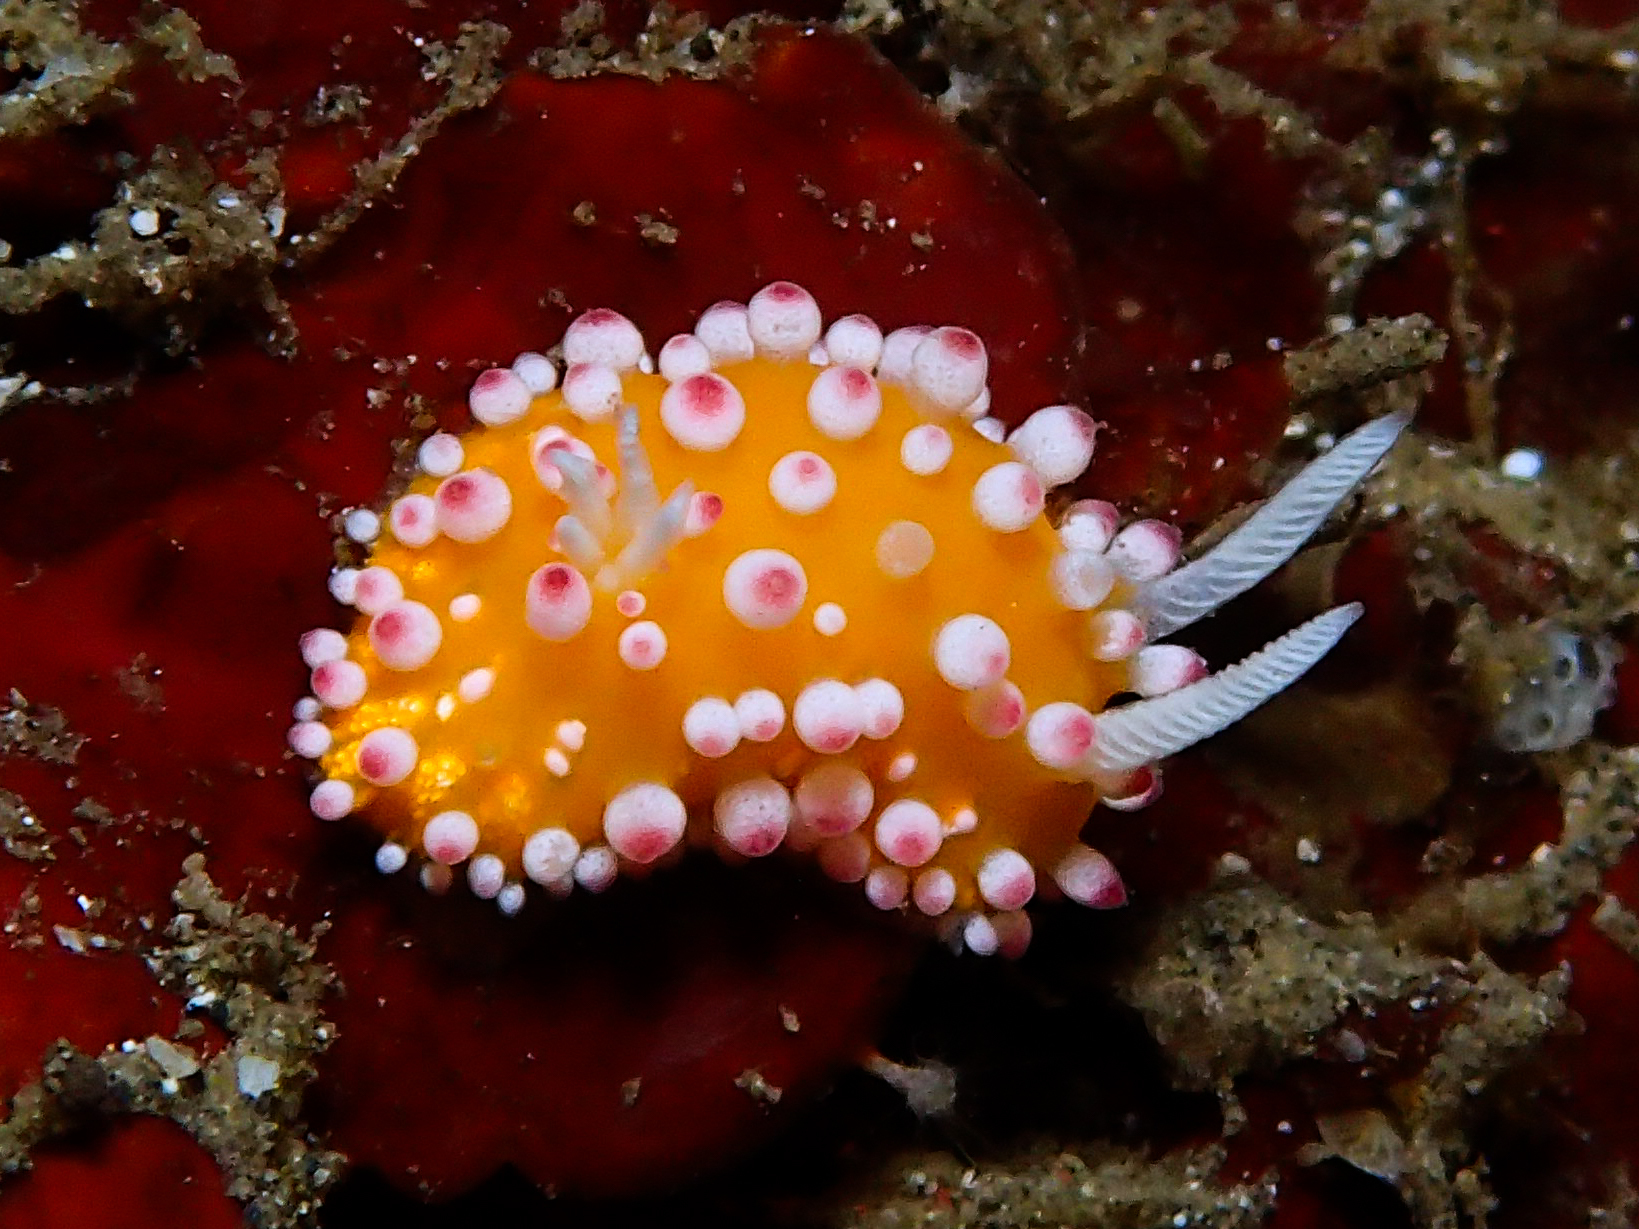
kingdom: Animalia
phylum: Mollusca
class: Gastropoda
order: Nudibranchia
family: Cadlinellidae
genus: Cadlinella
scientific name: Cadlinella ornatissima
